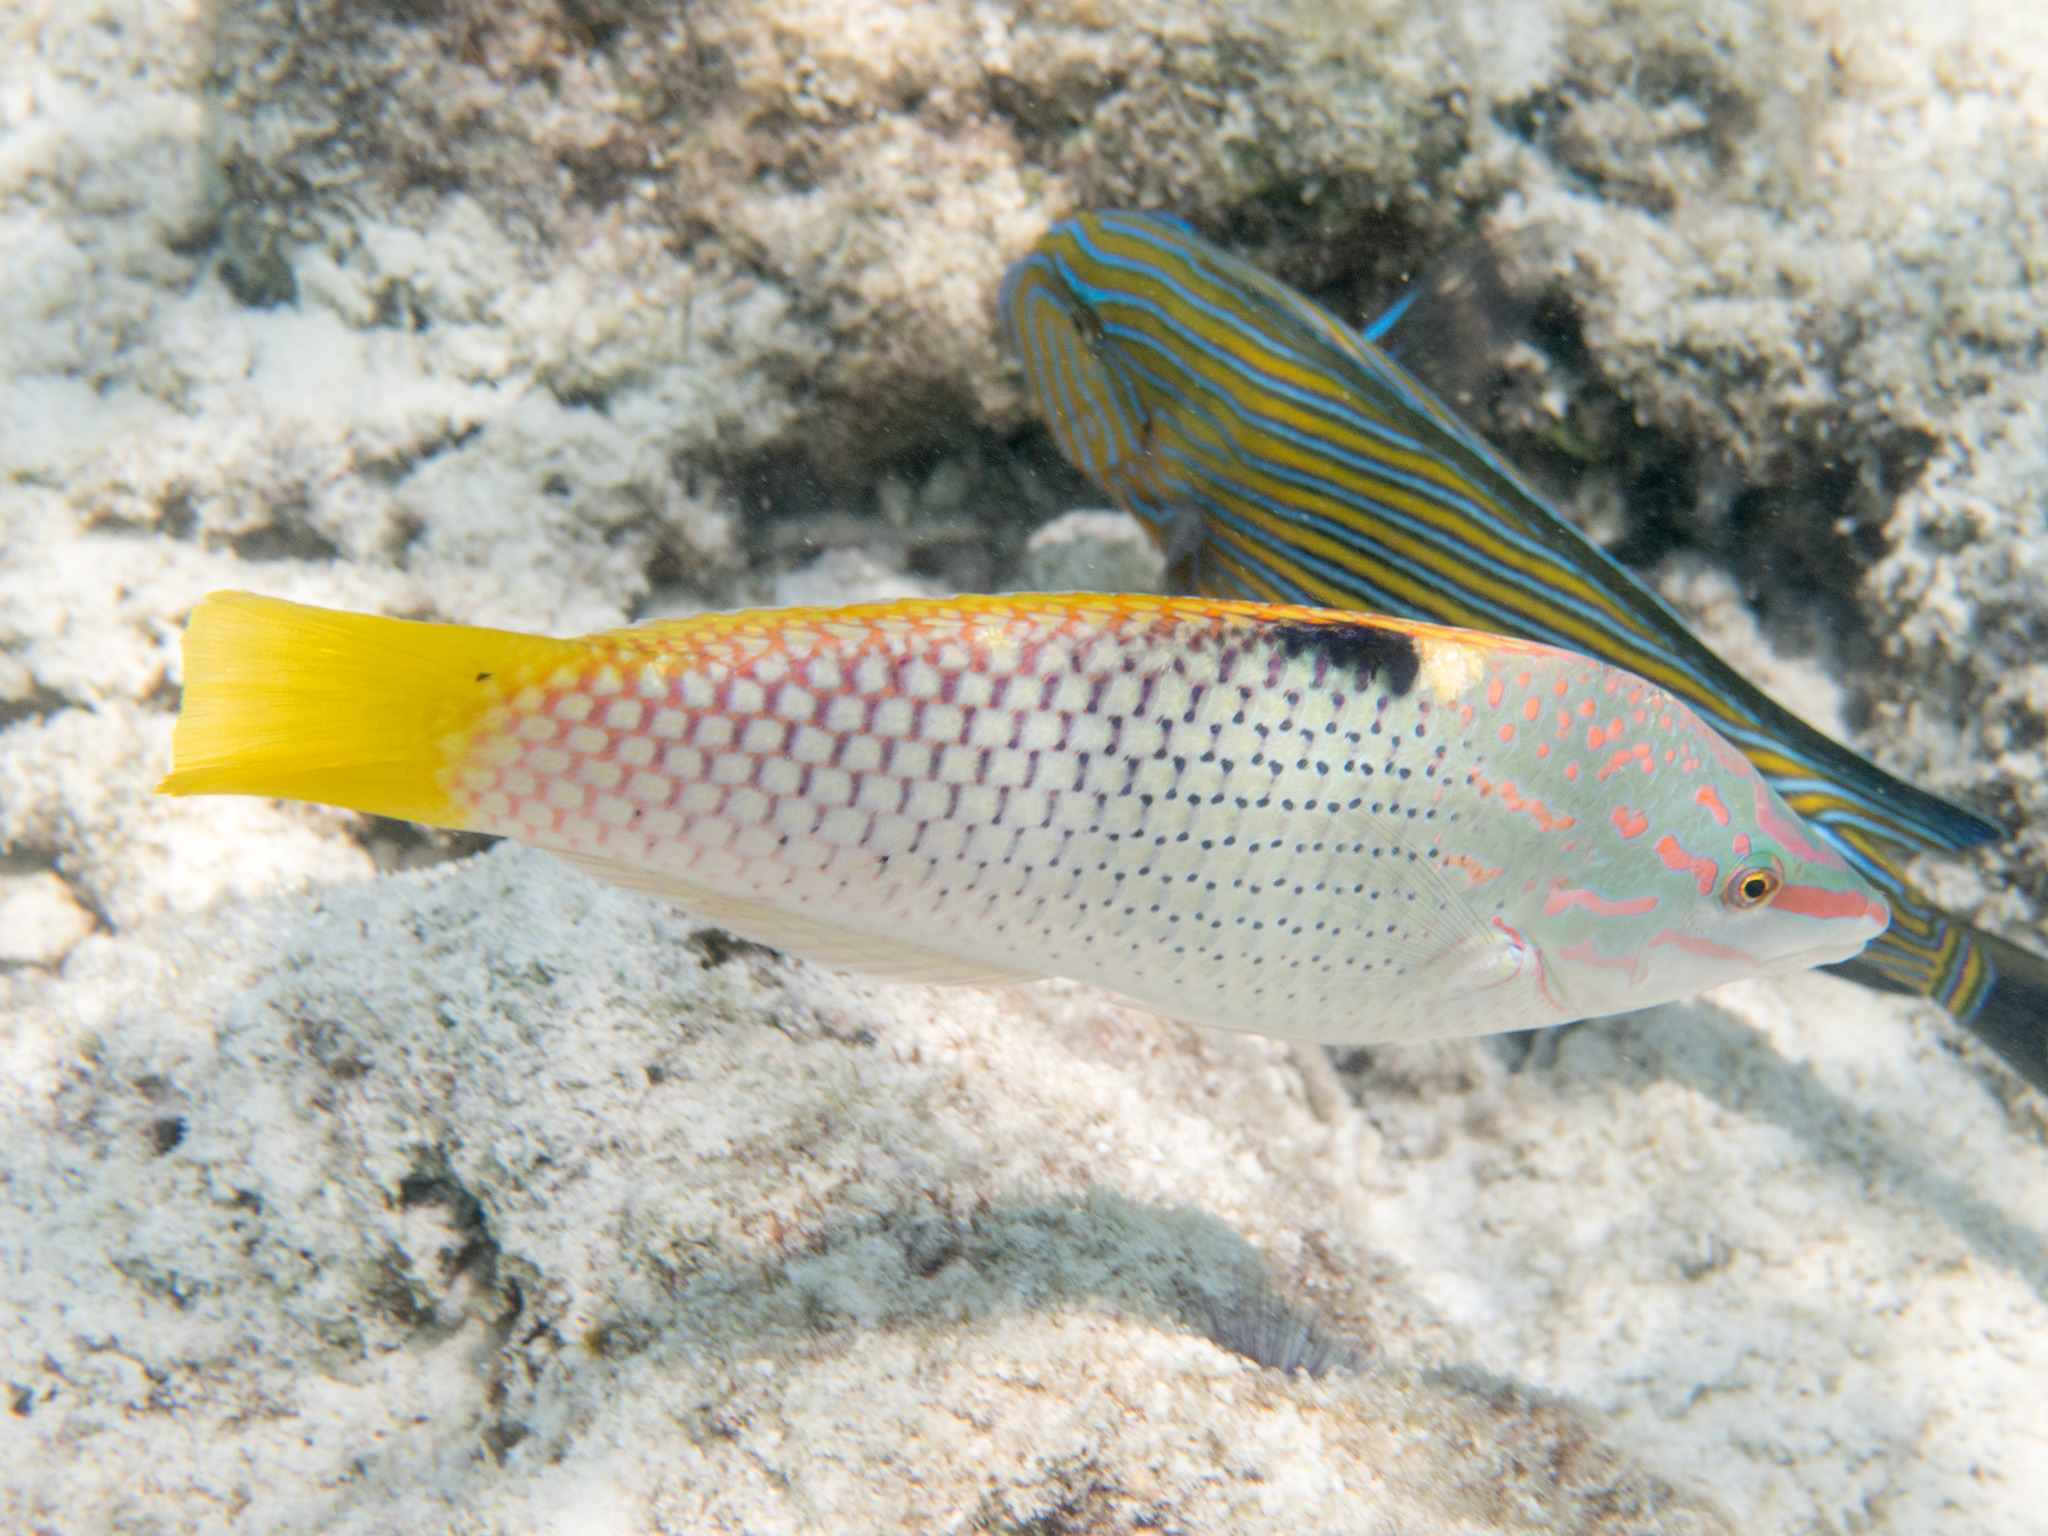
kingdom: Animalia
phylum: Chordata
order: Perciformes
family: Labridae
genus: Halichoeres
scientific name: Halichoeres hortulanus
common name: Checkerboard wrasse
